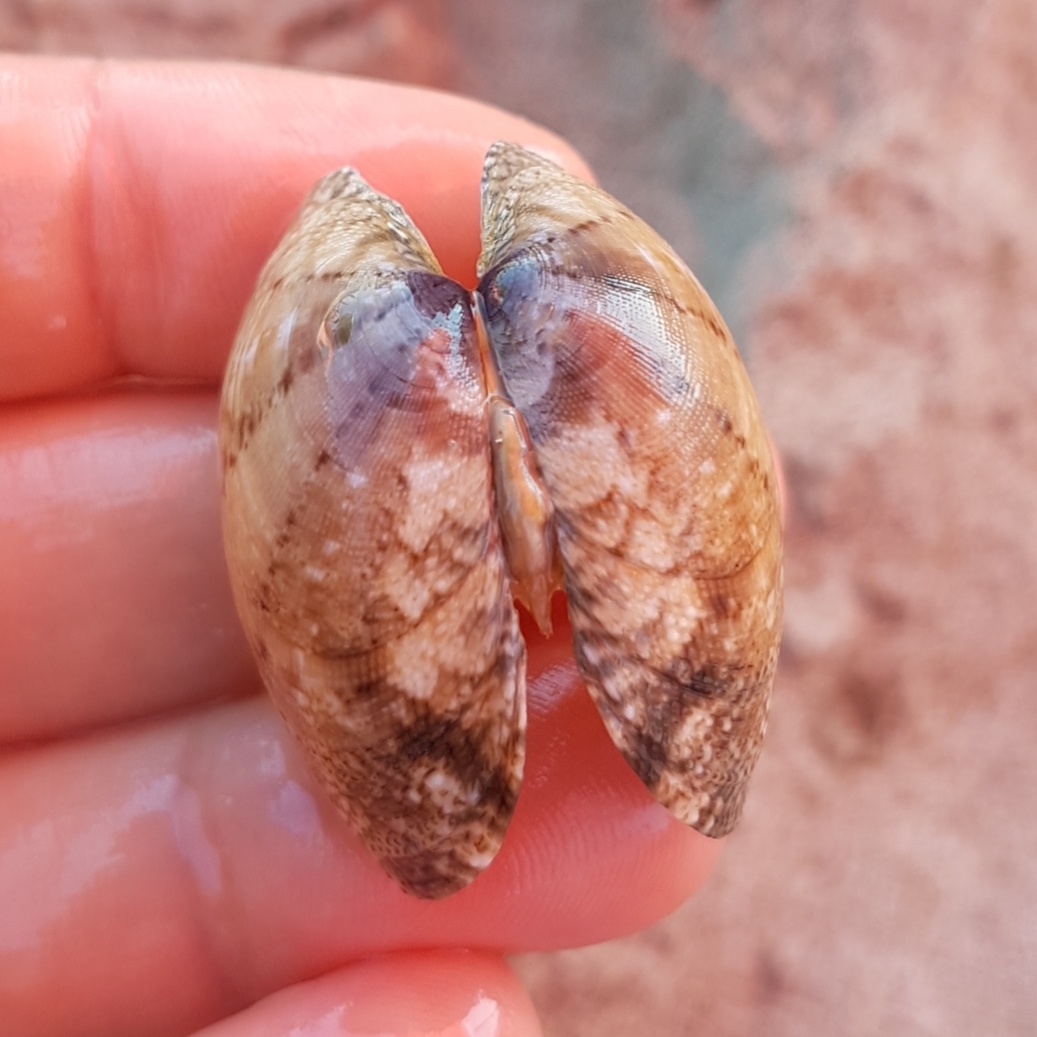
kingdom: Animalia
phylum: Mollusca
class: Bivalvia
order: Venerida
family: Veneridae
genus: Ruditapes
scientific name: Ruditapes decussatus
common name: Chequered carpet shell
